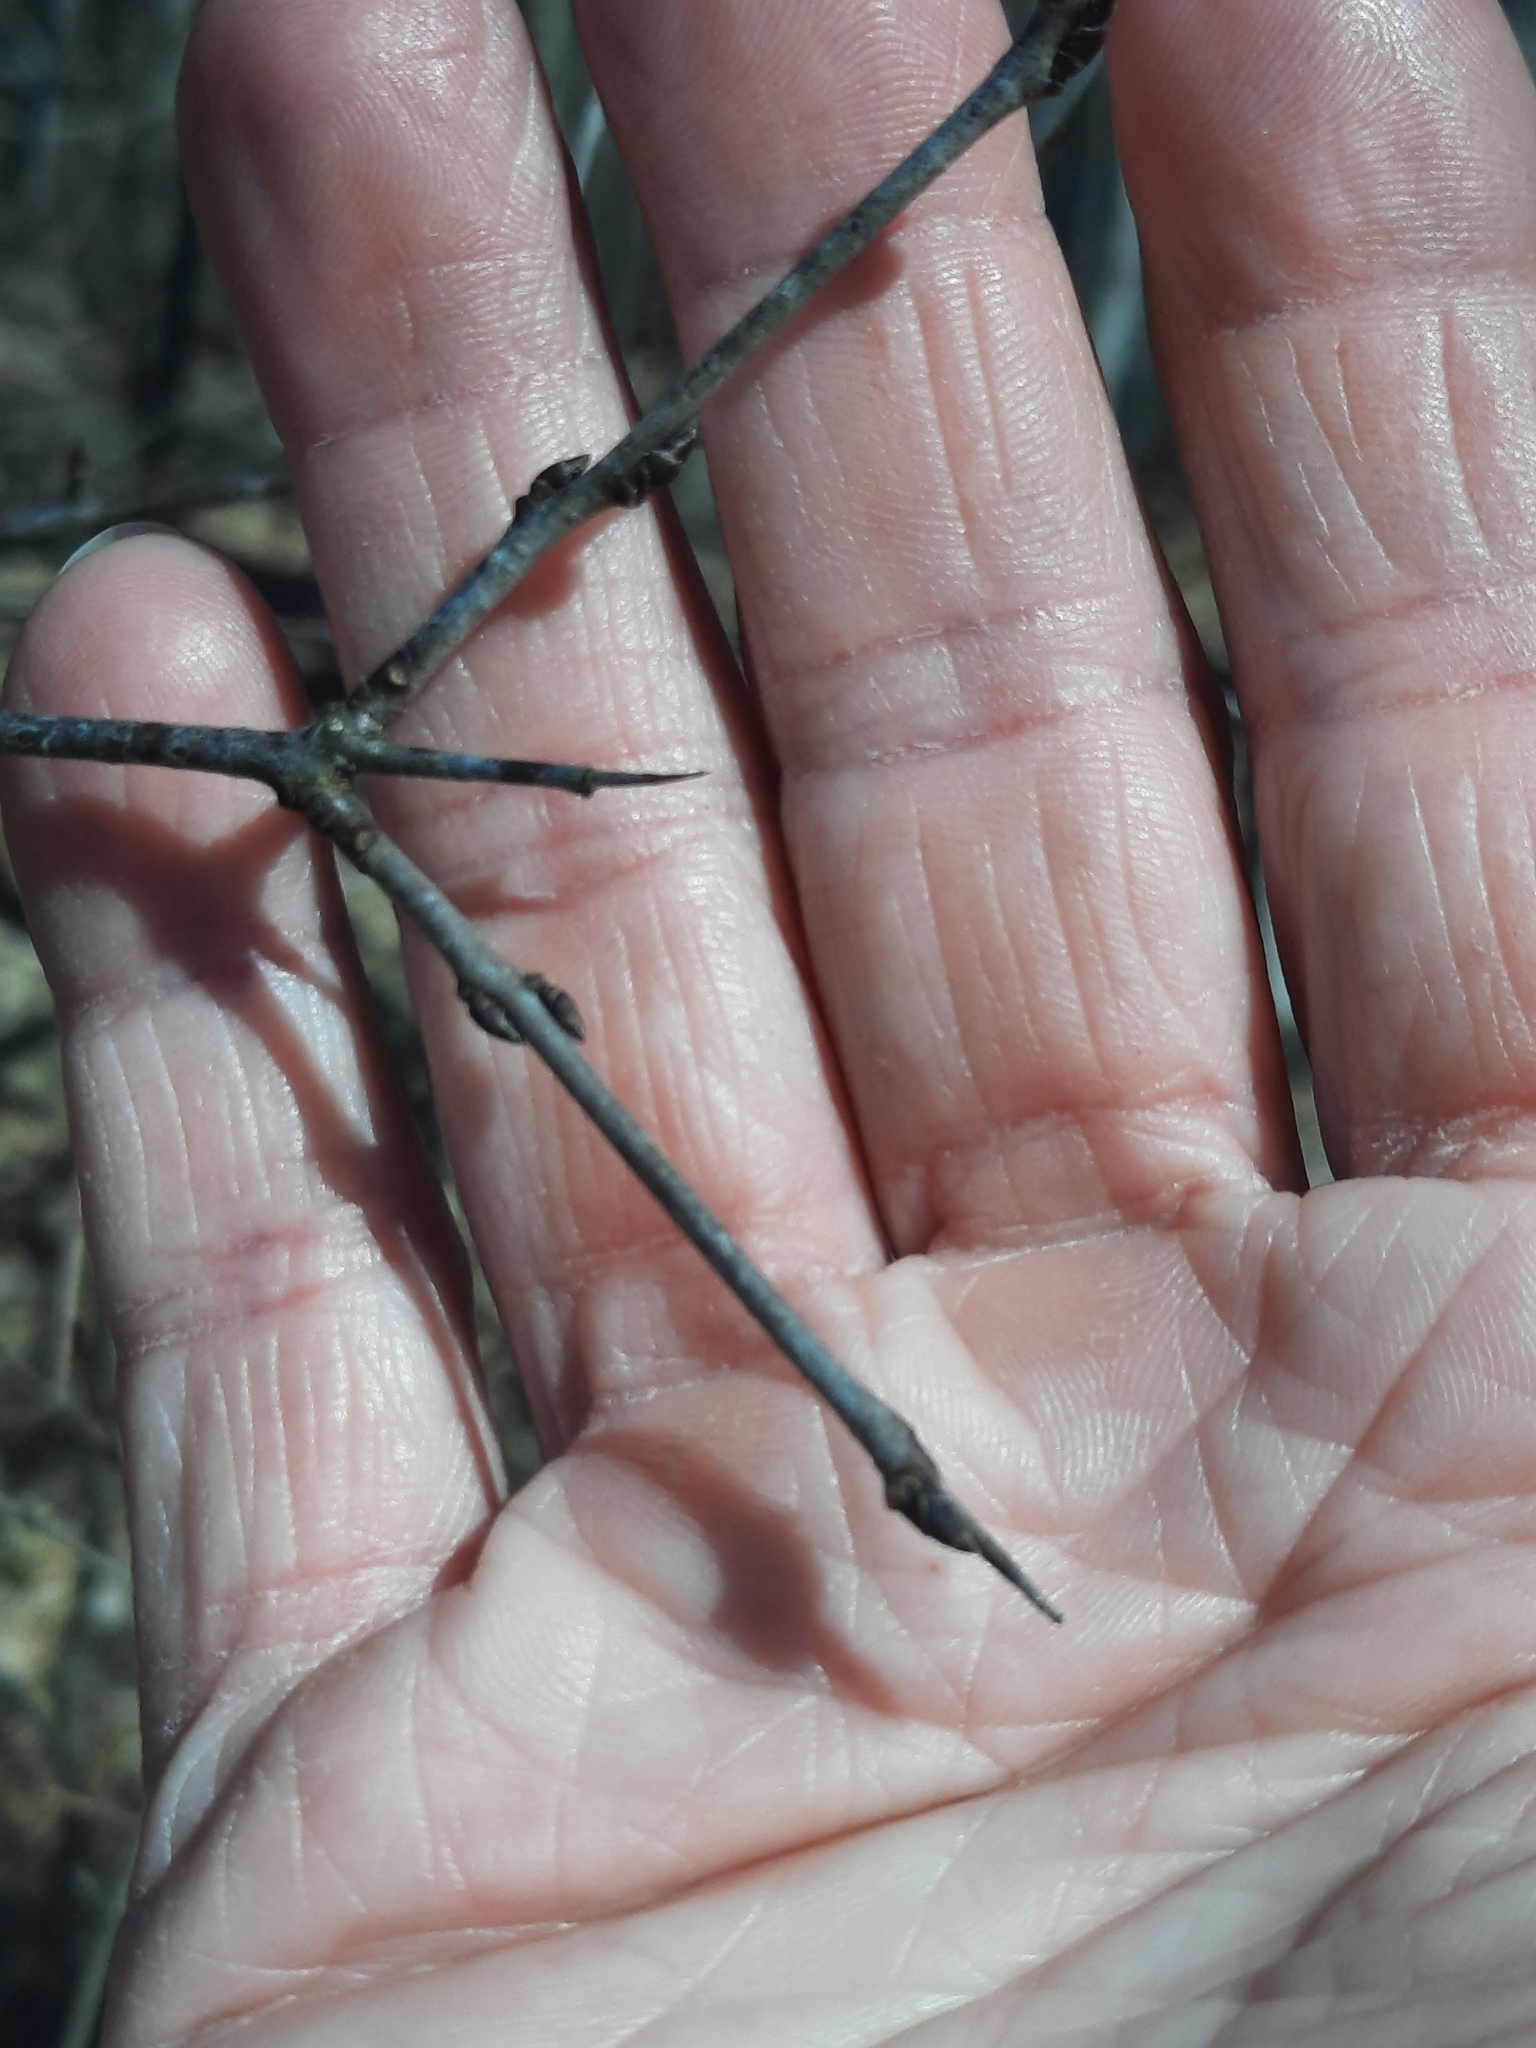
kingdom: Plantae
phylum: Tracheophyta
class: Magnoliopsida
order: Rosales
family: Rhamnaceae
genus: Rhamnus
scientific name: Rhamnus cathartica
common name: Common buckthorn
